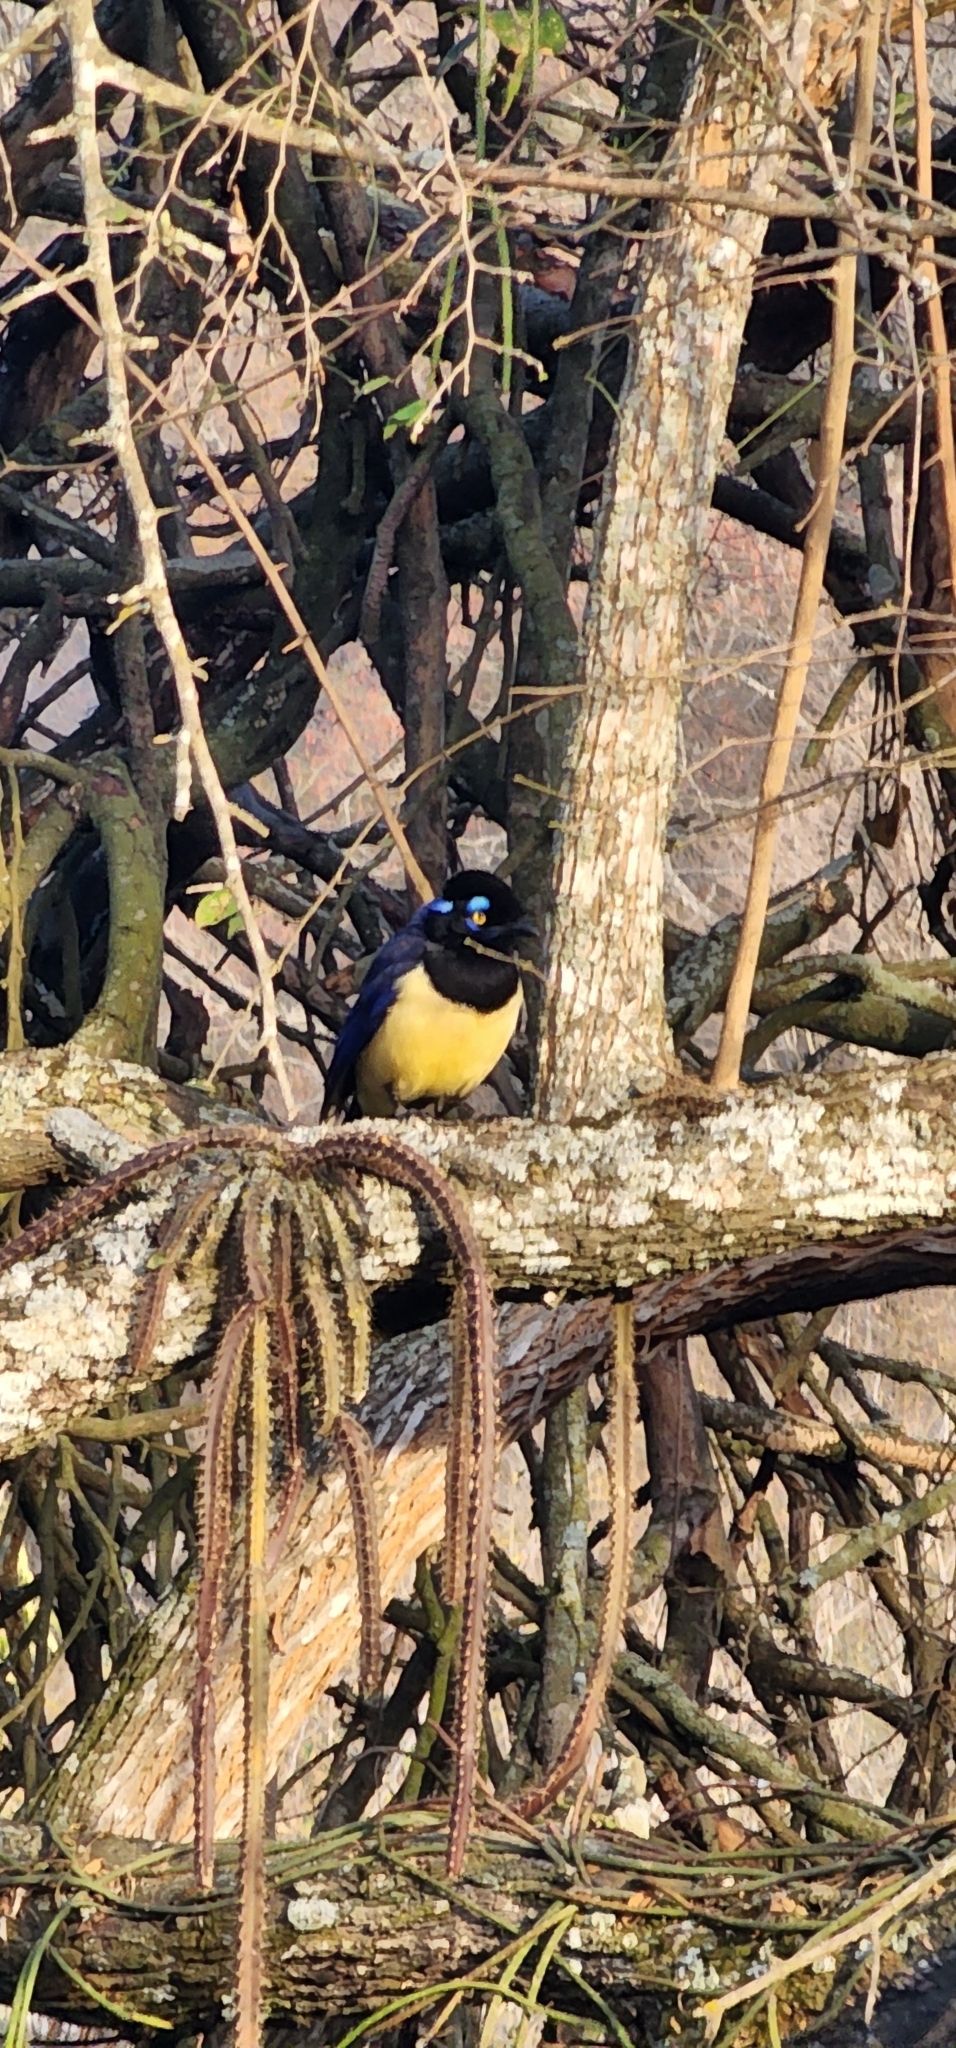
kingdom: Animalia
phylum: Chordata
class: Aves
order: Passeriformes
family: Corvidae
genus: Cyanocorax
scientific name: Cyanocorax chrysops
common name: Plush-crested jay
